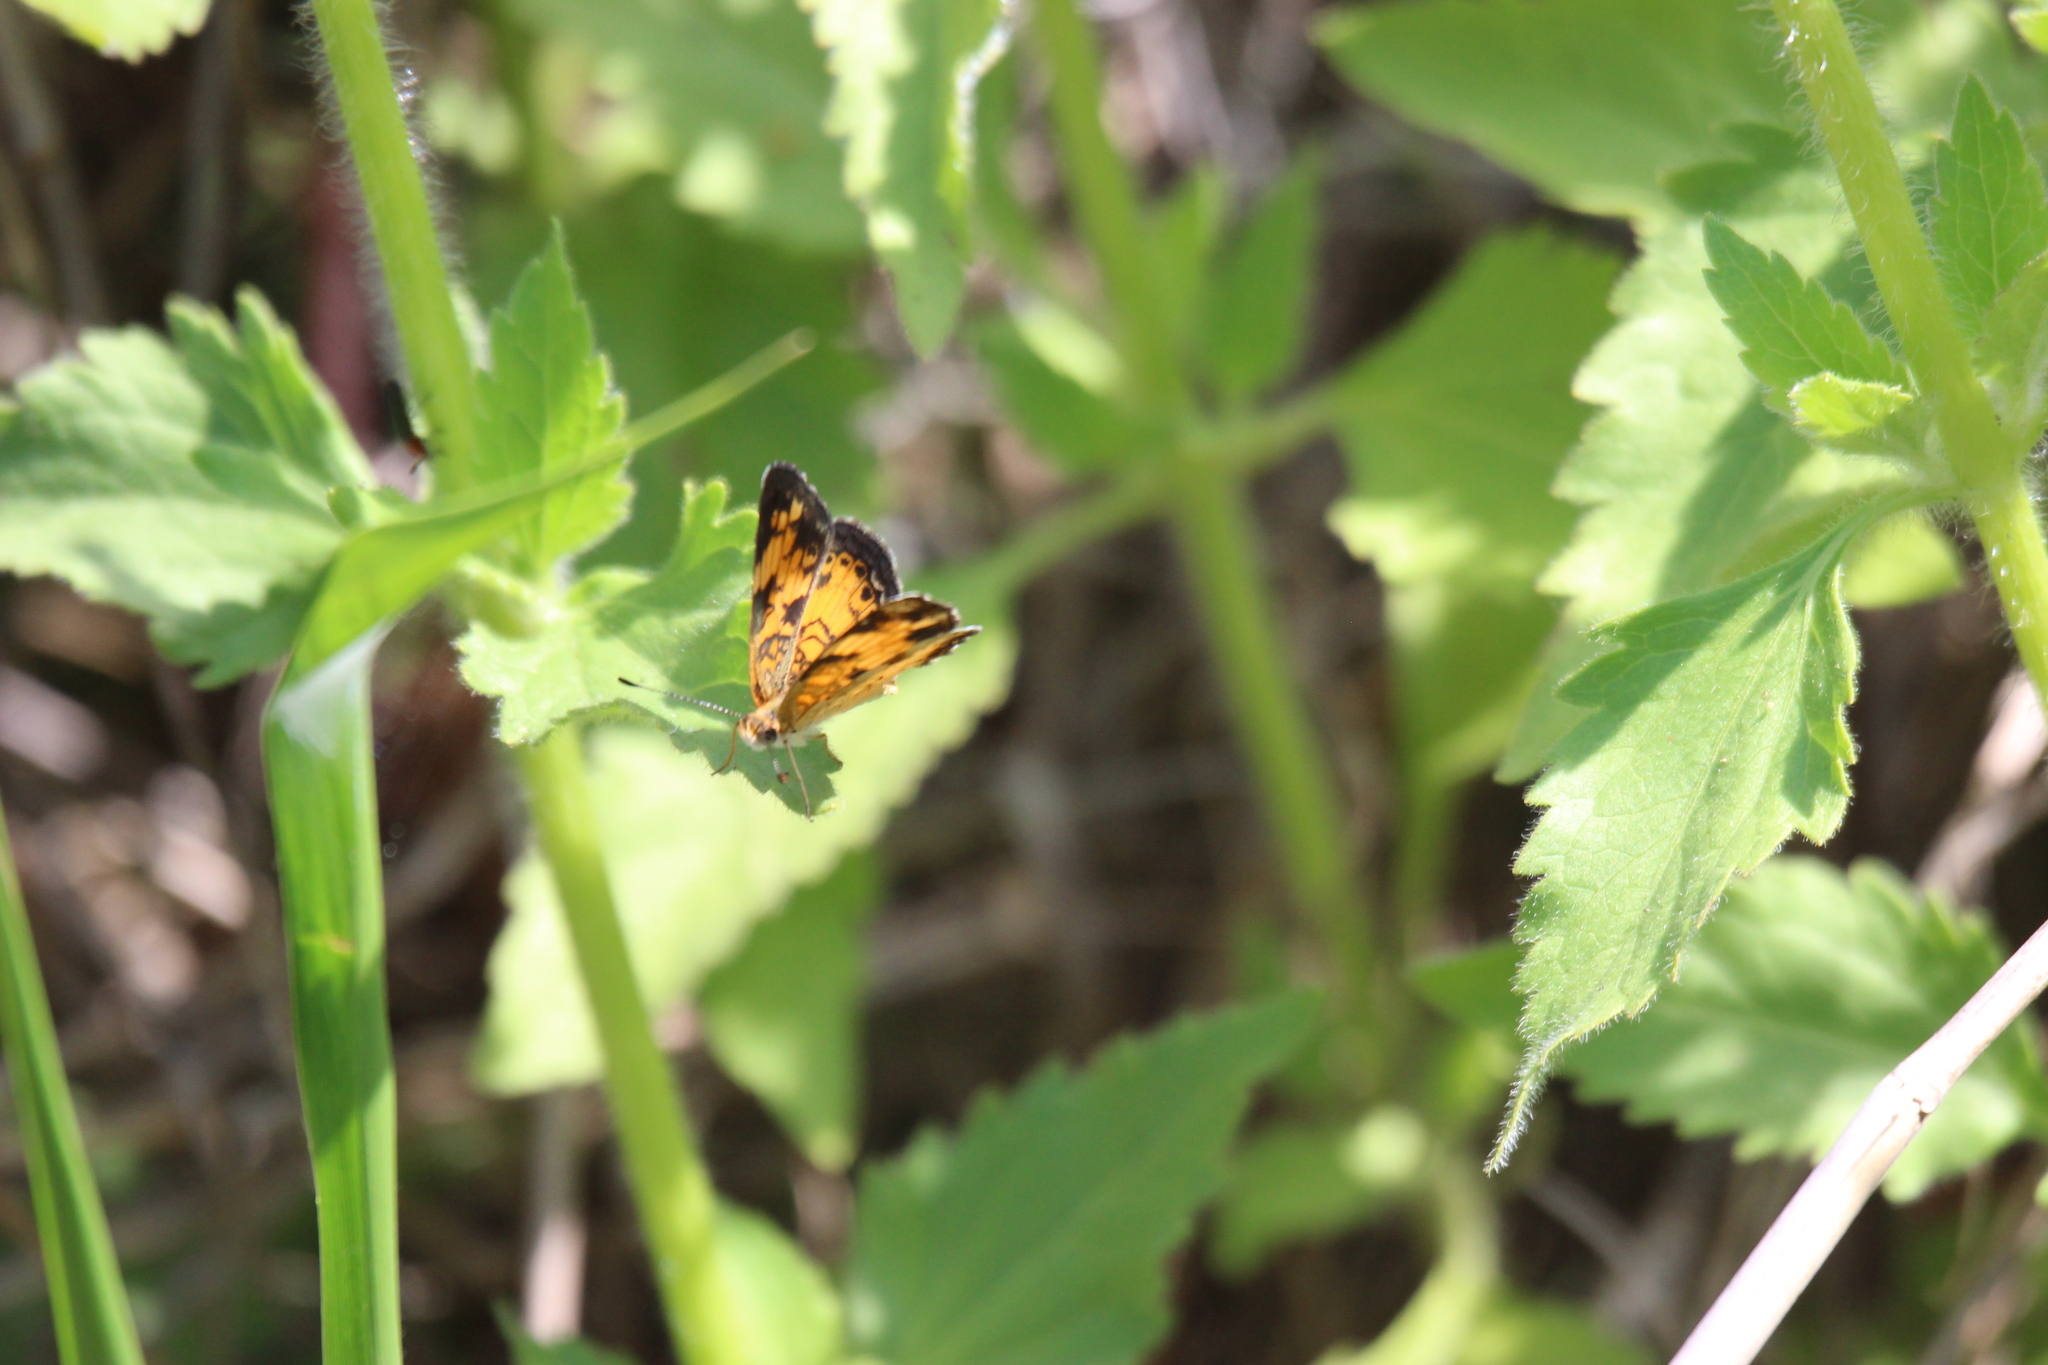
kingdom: Animalia
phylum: Arthropoda
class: Insecta
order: Lepidoptera
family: Nymphalidae
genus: Phyciodes
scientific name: Phyciodes tharos
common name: Pearl crescent
